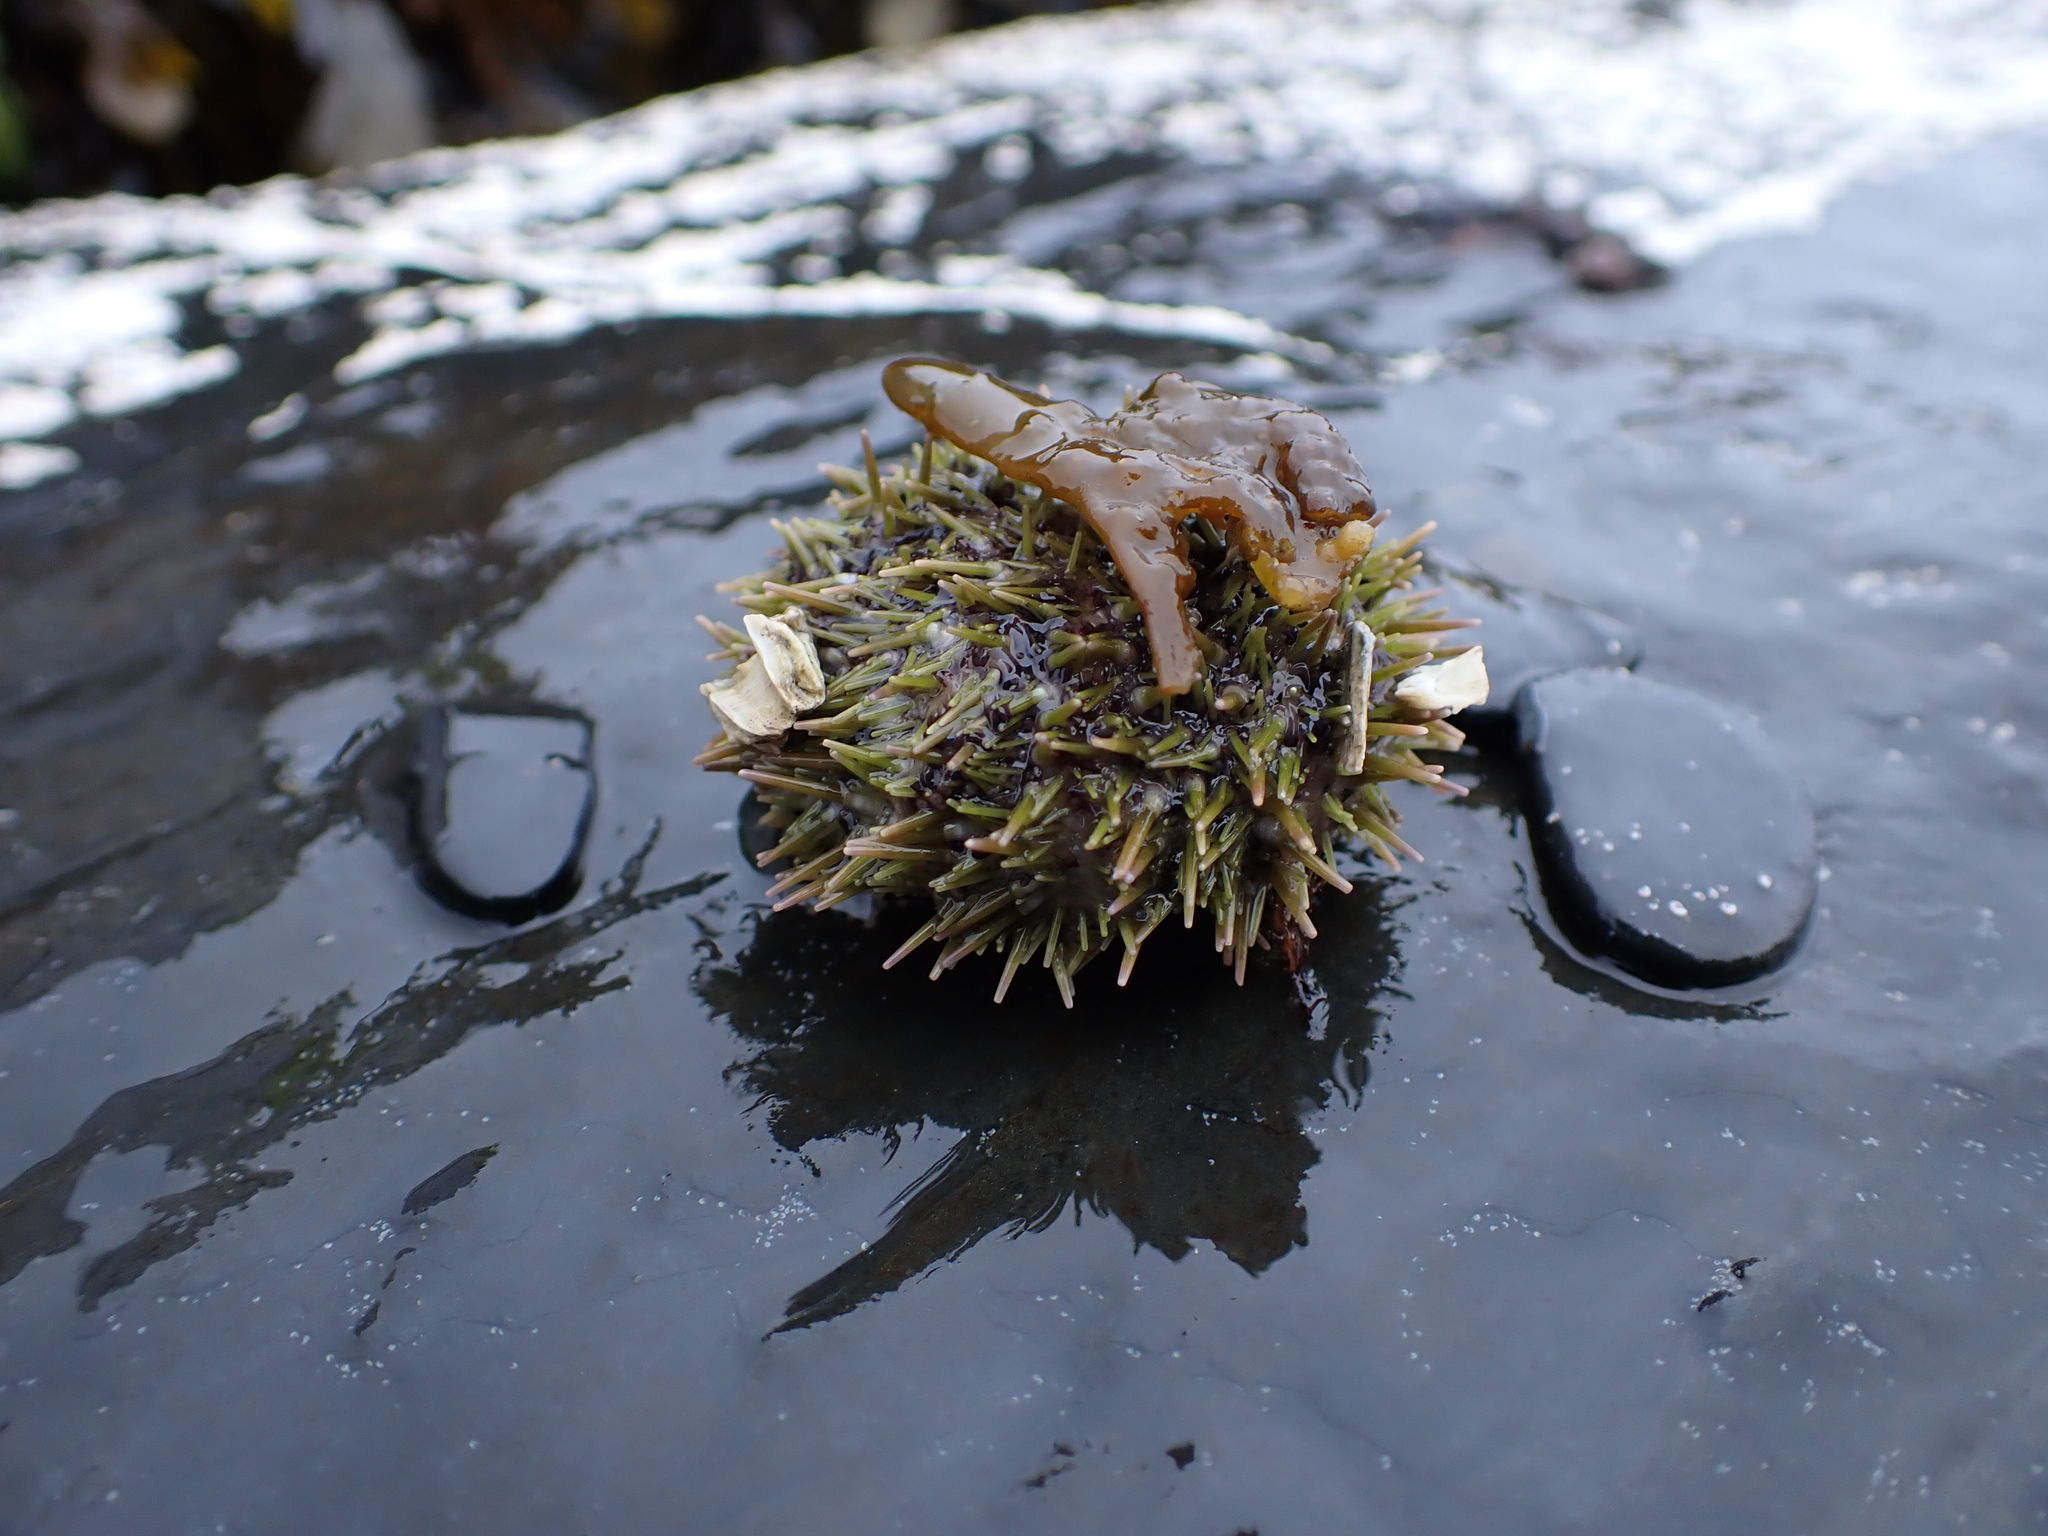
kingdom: Animalia
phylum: Echinodermata
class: Echinoidea
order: Camarodonta
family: Strongylocentrotidae
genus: Strongylocentrotus
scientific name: Strongylocentrotus droebachiensis
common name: Northern sea urchin
